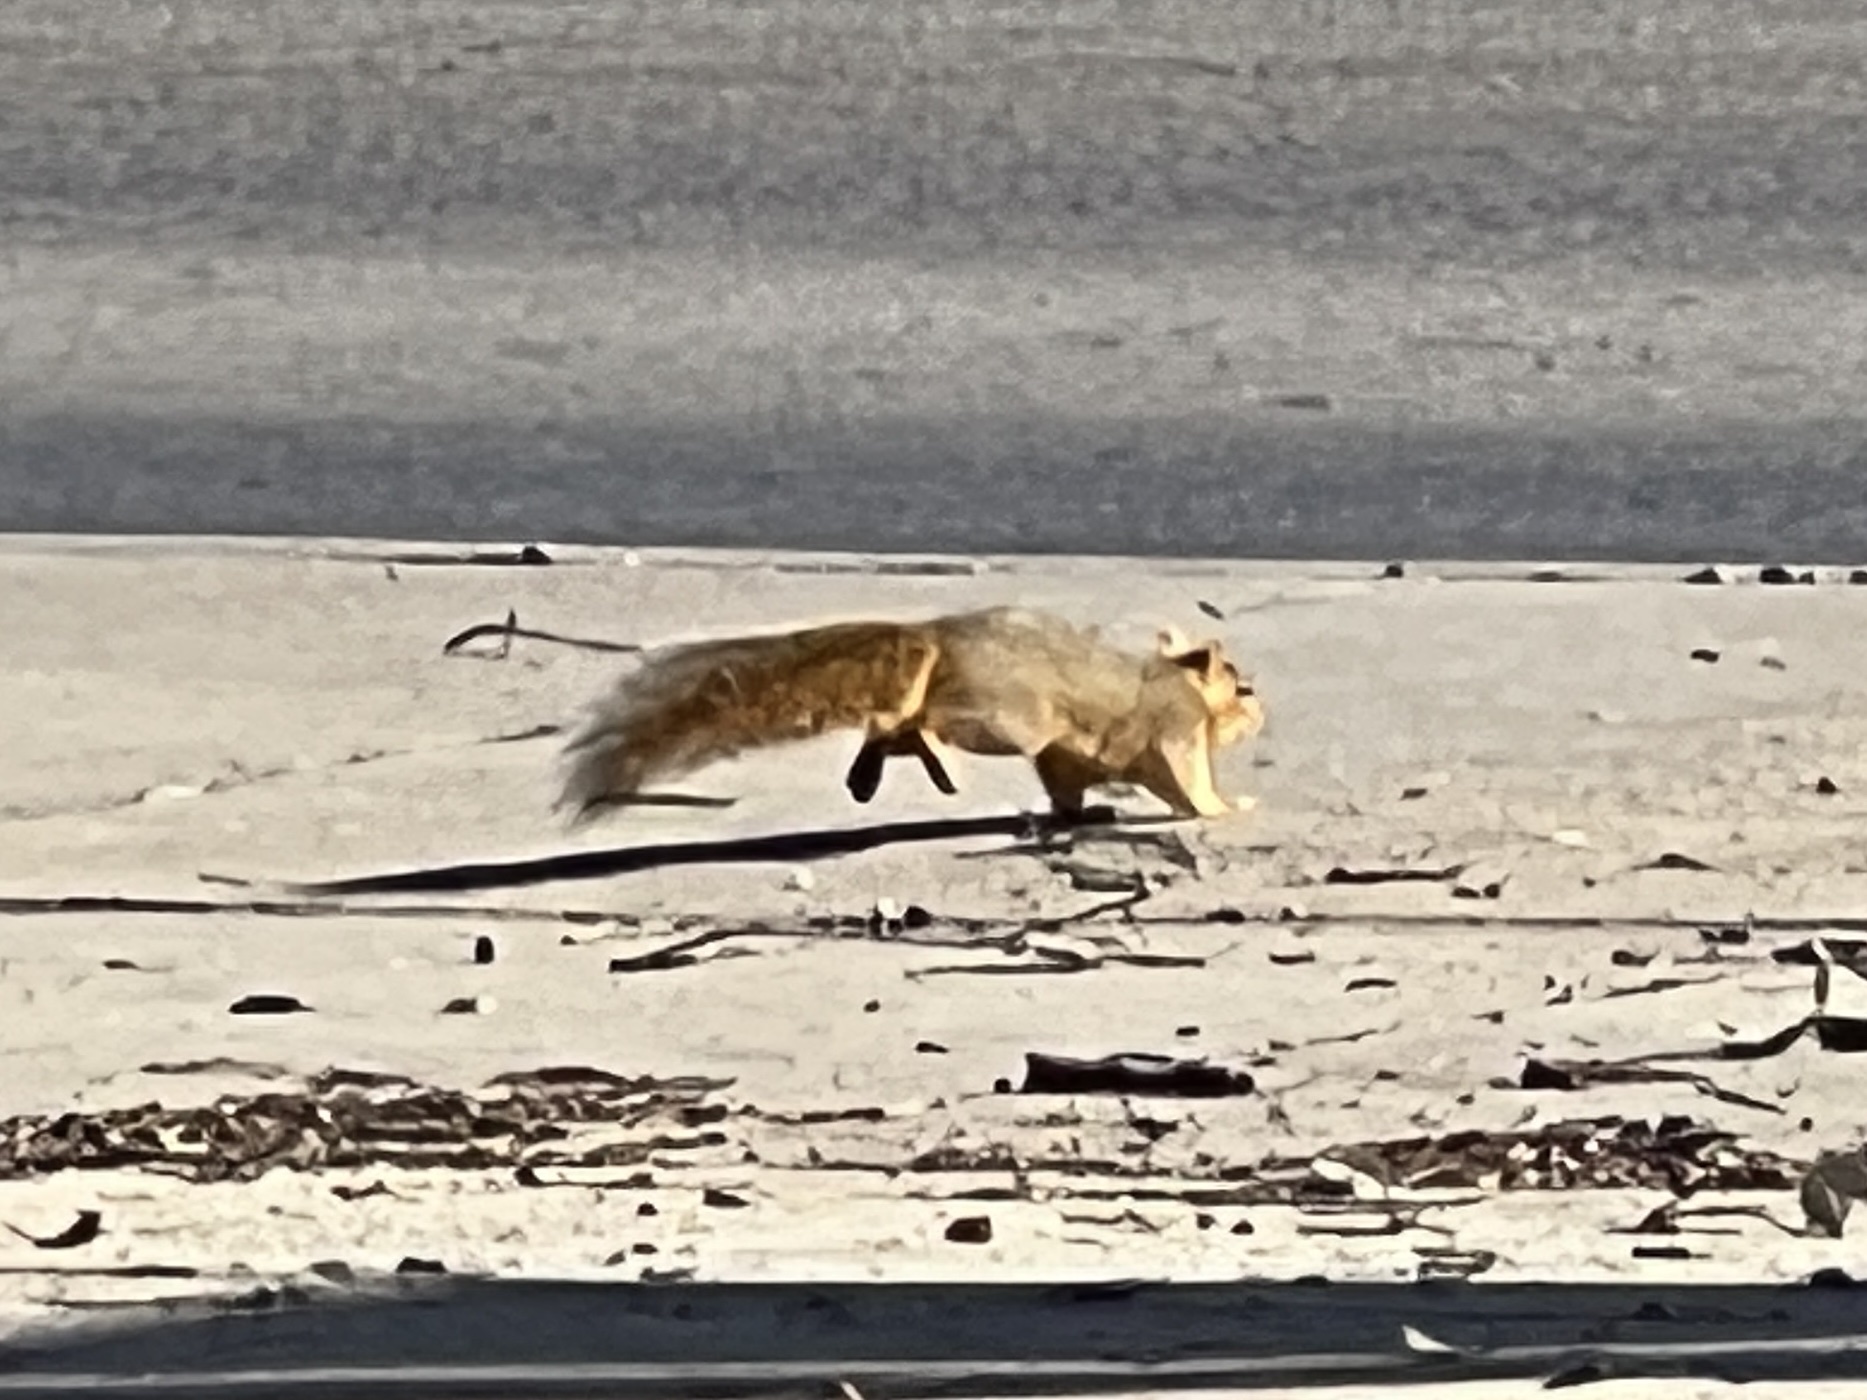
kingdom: Animalia
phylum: Chordata
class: Mammalia
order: Rodentia
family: Sciuridae
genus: Sciurus
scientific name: Sciurus niger
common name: Fox squirrel
